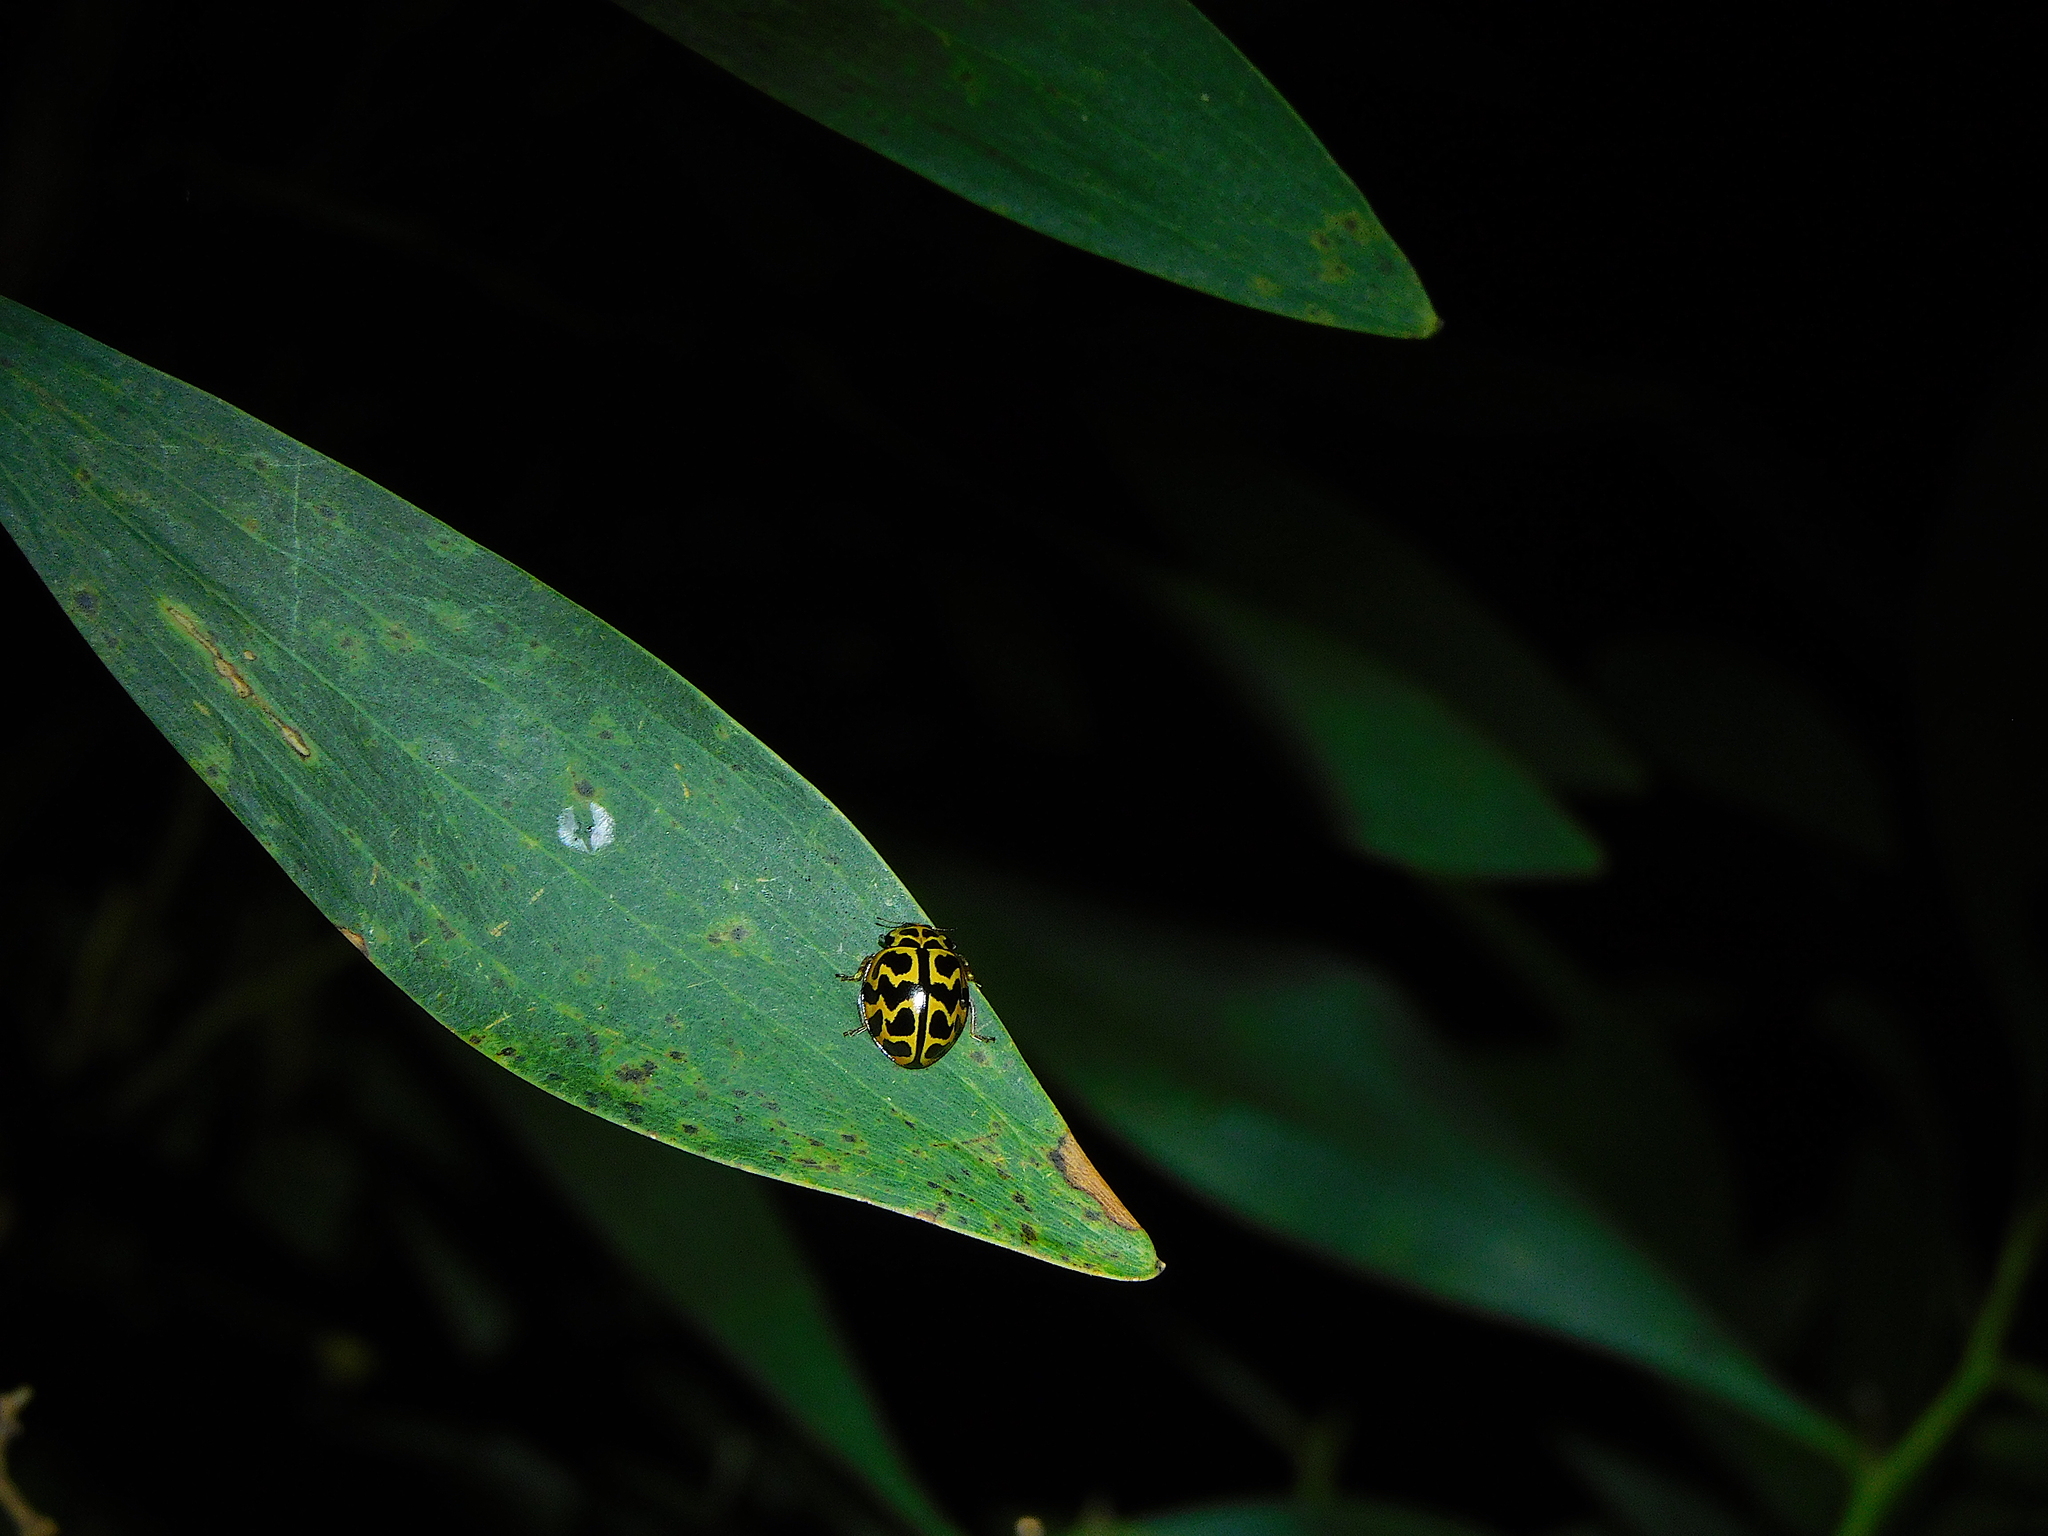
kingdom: Animalia
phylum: Arthropoda
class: Insecta
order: Coleoptera
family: Coccinellidae
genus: Cleobora
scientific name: Cleobora
